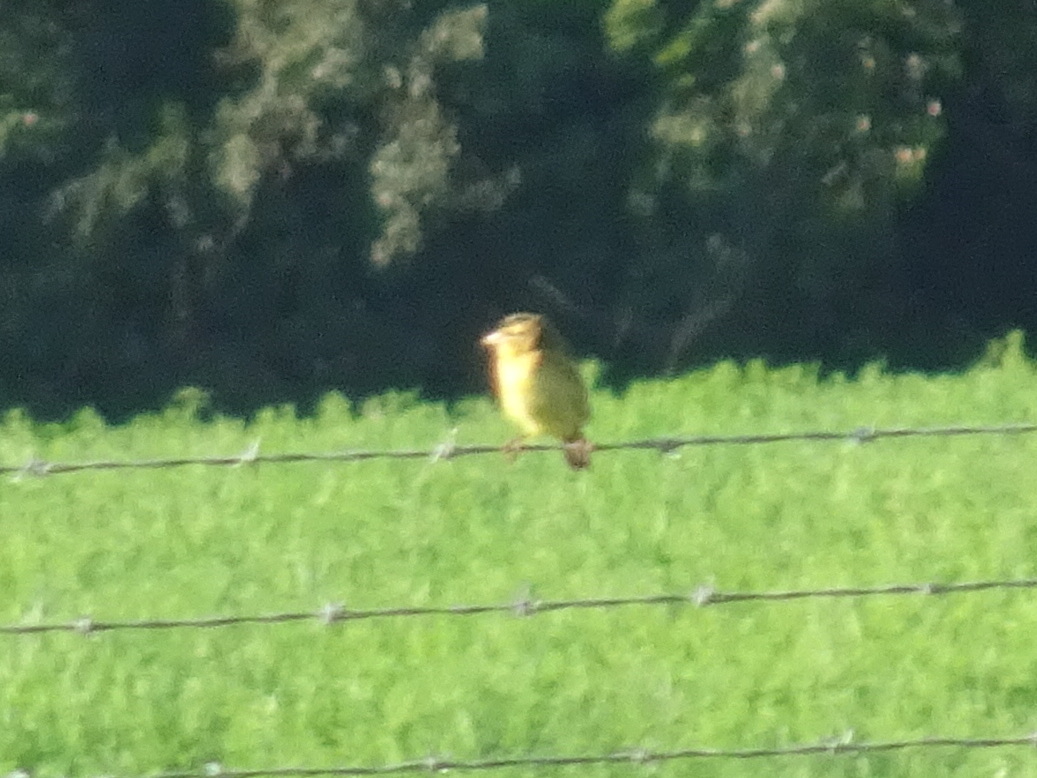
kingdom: Animalia
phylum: Chordata
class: Aves
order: Passeriformes
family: Icteridae
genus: Dolichonyx
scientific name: Dolichonyx oryzivorus
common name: Bobolink
